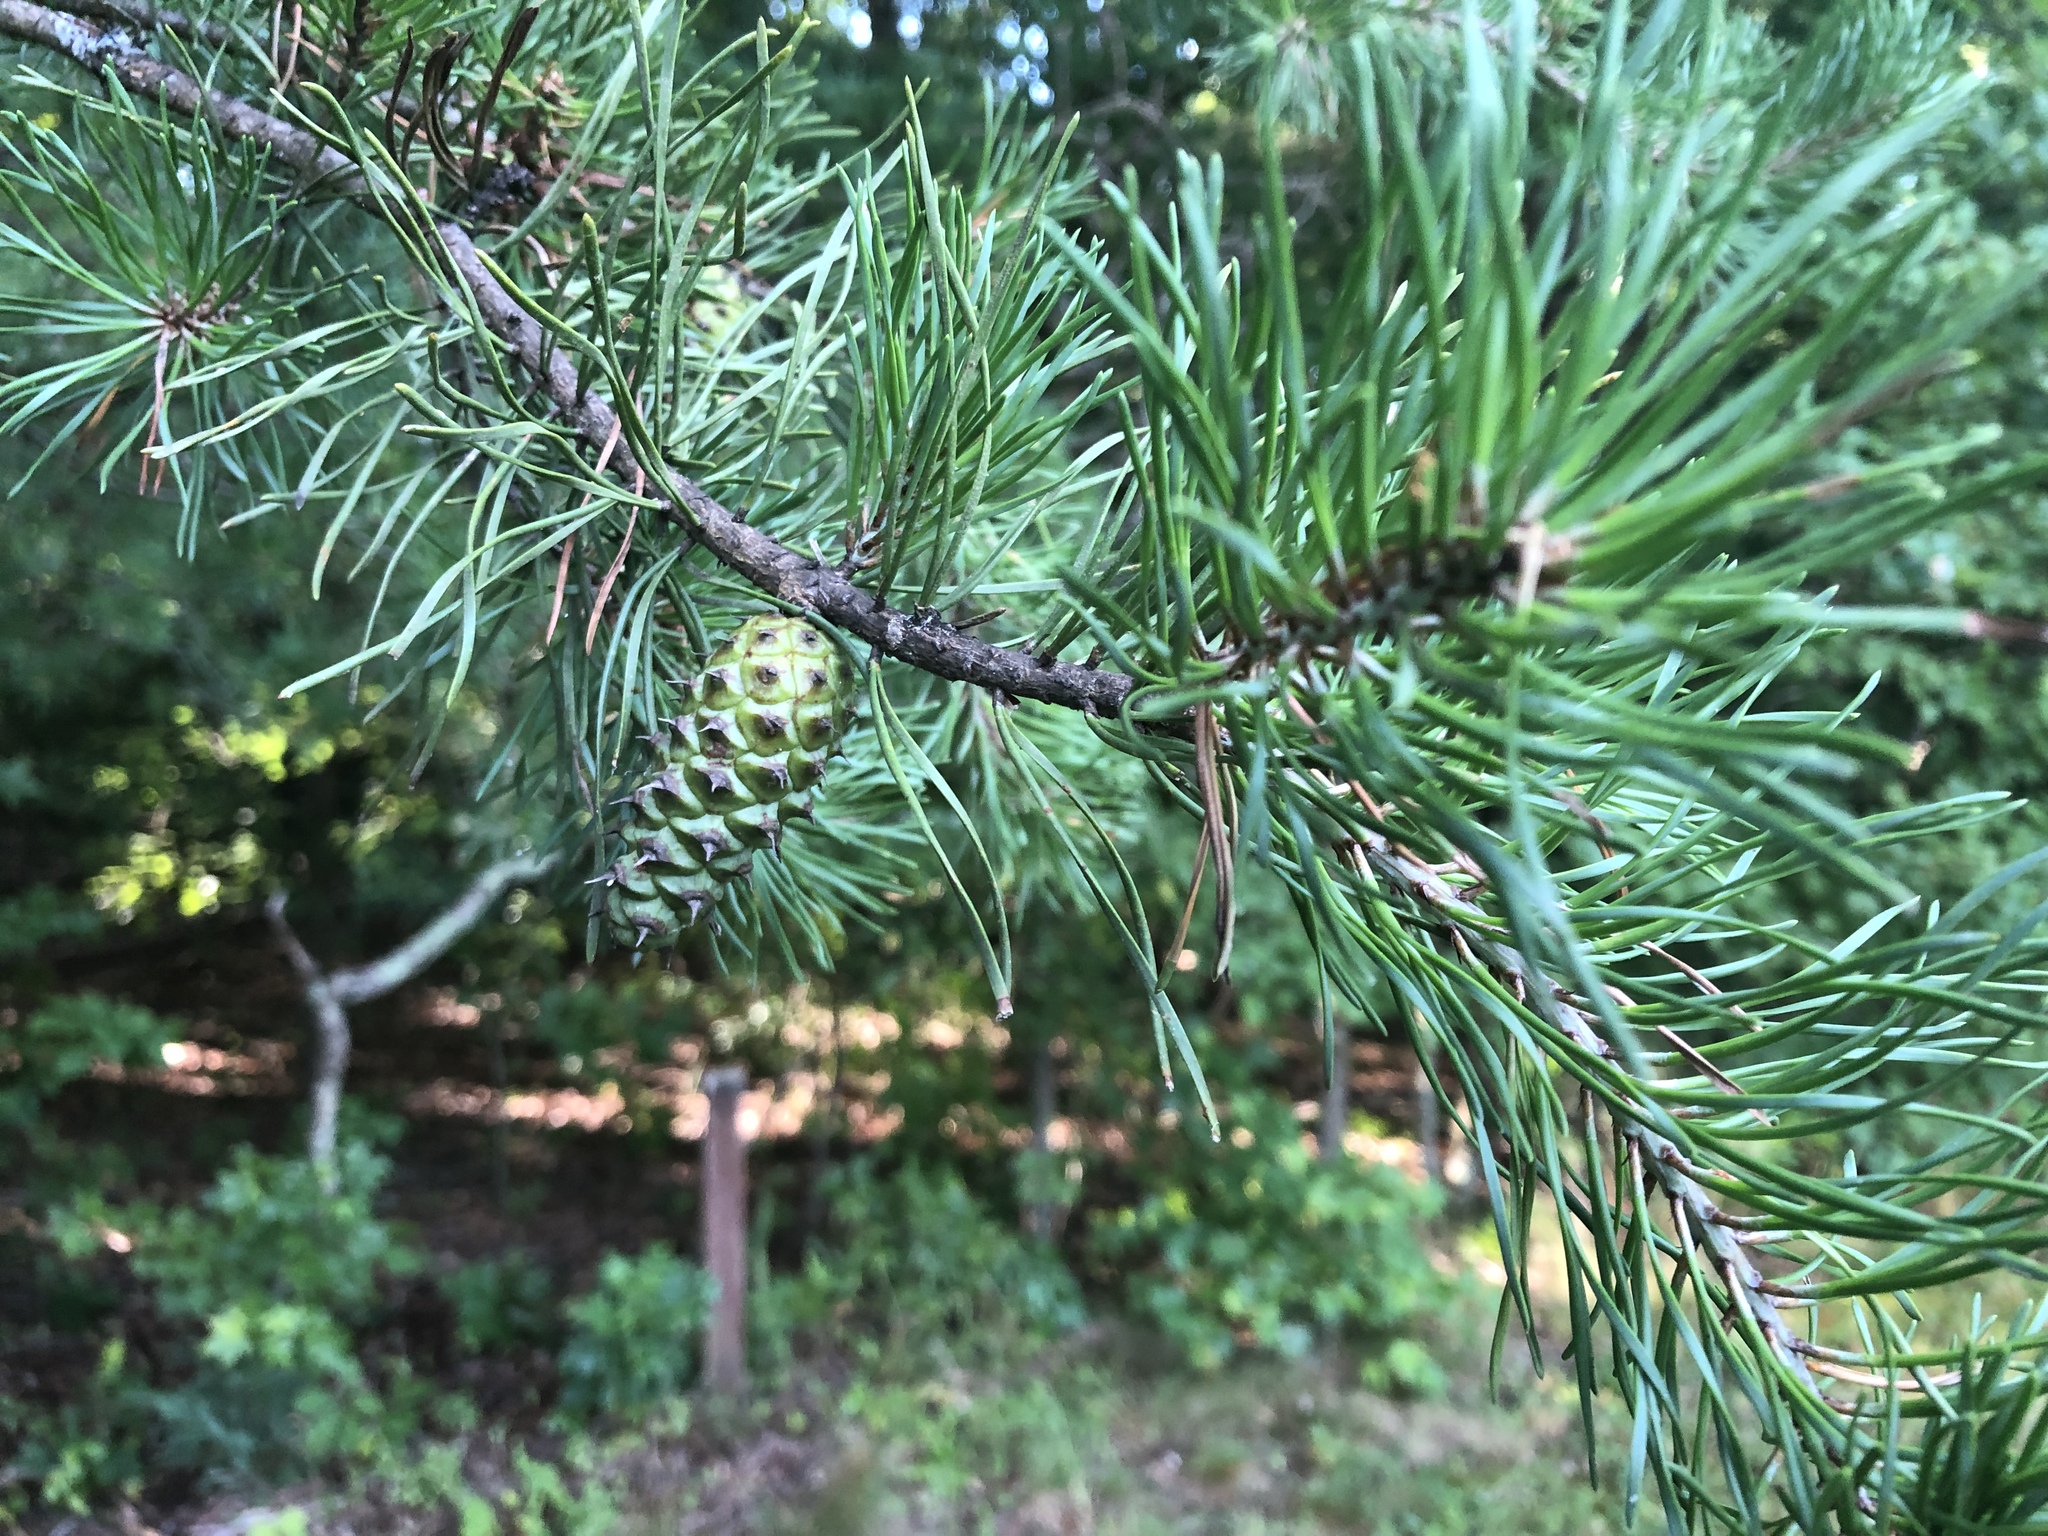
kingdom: Plantae
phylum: Tracheophyta
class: Pinopsida
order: Pinales
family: Pinaceae
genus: Pinus
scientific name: Pinus virginiana
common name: Scrub pine
